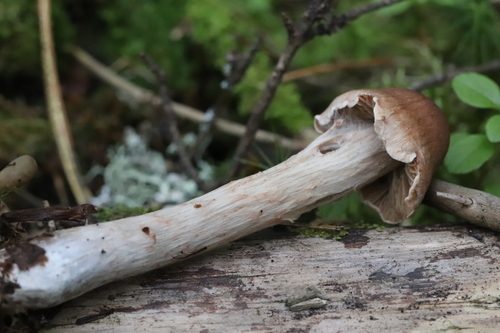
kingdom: Fungi
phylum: Basidiomycota
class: Agaricomycetes
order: Agaricales
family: Cortinariaceae
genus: Cortinarius
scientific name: Cortinarius
